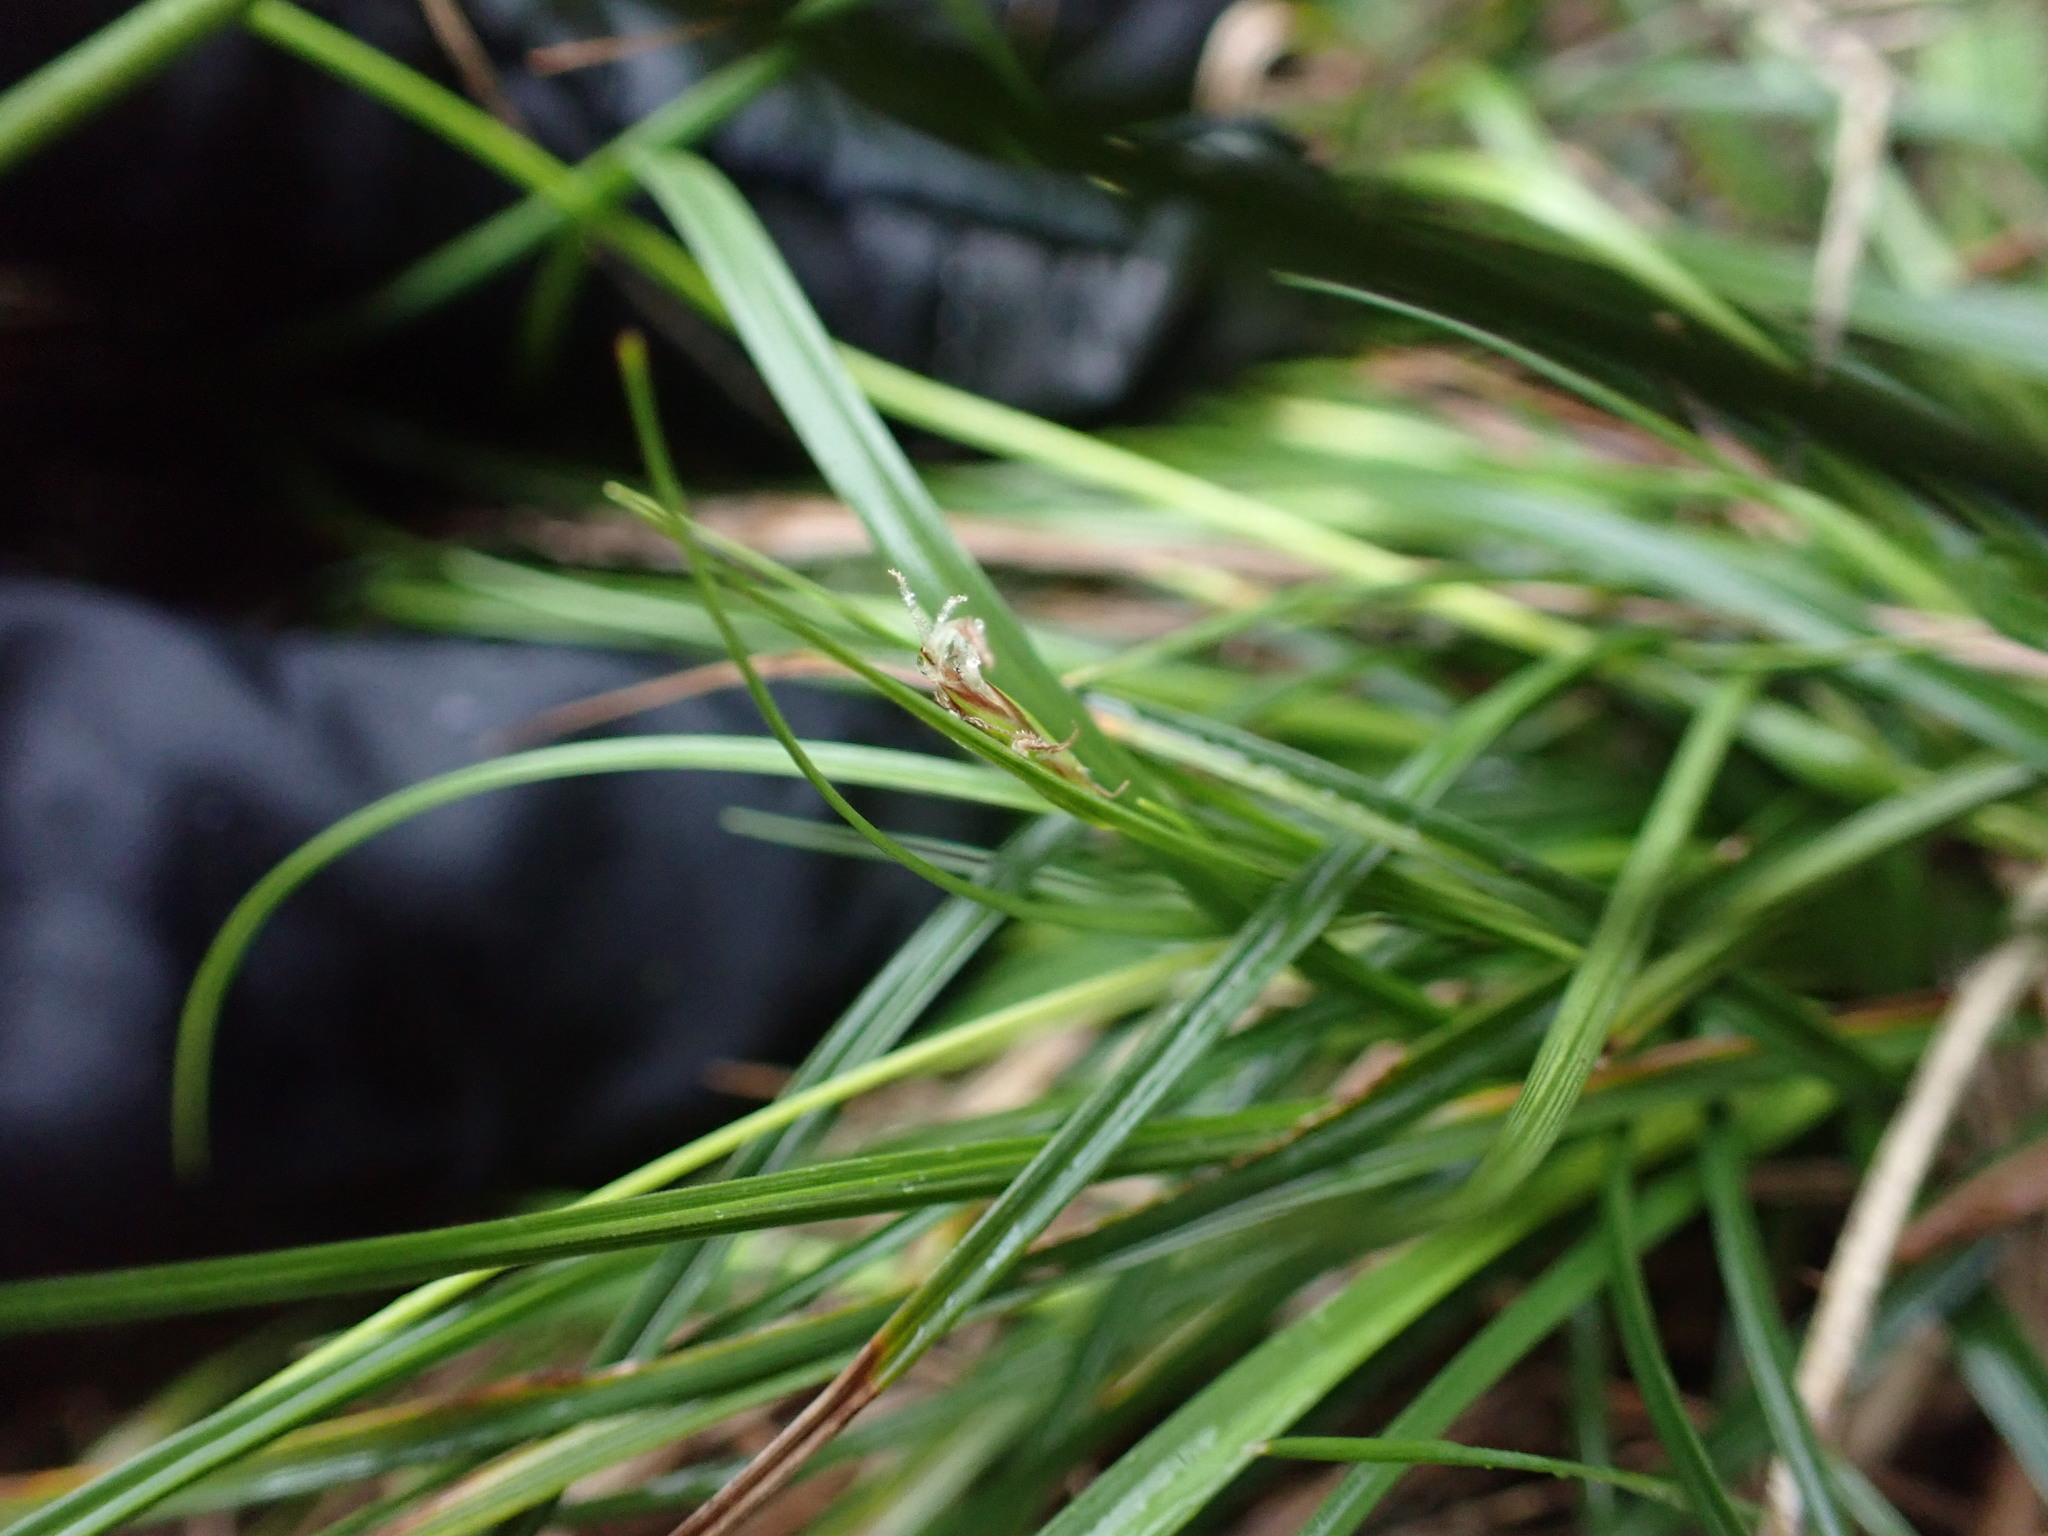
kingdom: Plantae
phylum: Tracheophyta
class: Liliopsida
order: Poales
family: Cyperaceae
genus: Carex
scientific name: Carex halleriana
